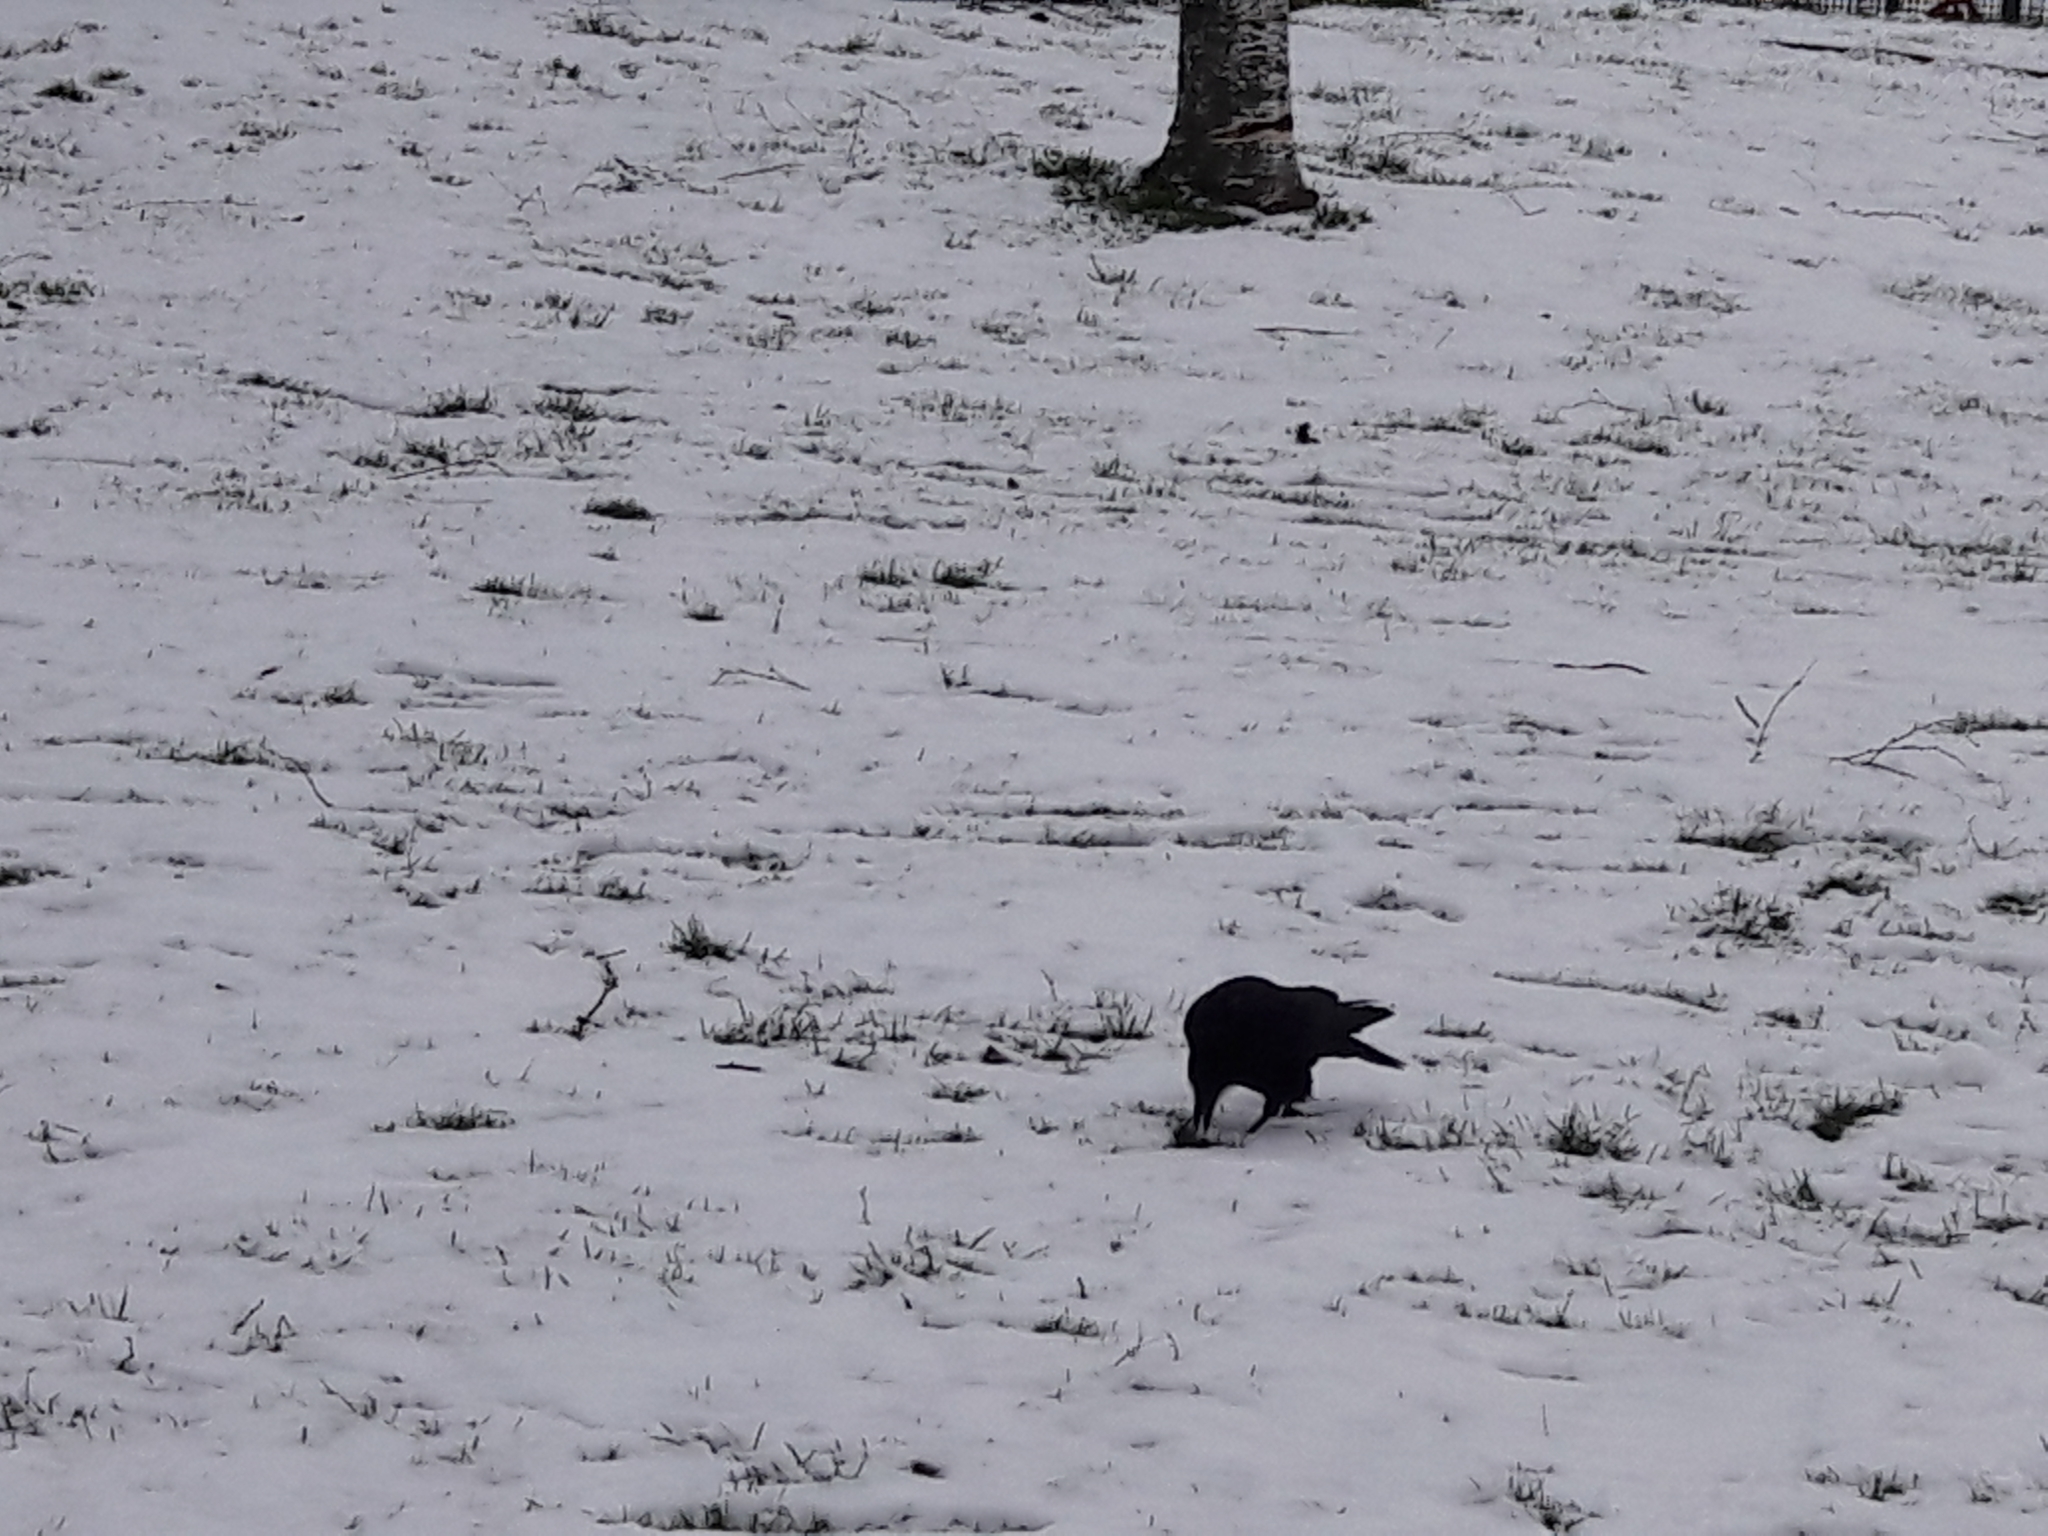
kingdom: Animalia
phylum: Chordata
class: Aves
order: Passeriformes
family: Corvidae
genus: Corvus
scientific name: Corvus corone
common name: Carrion crow
